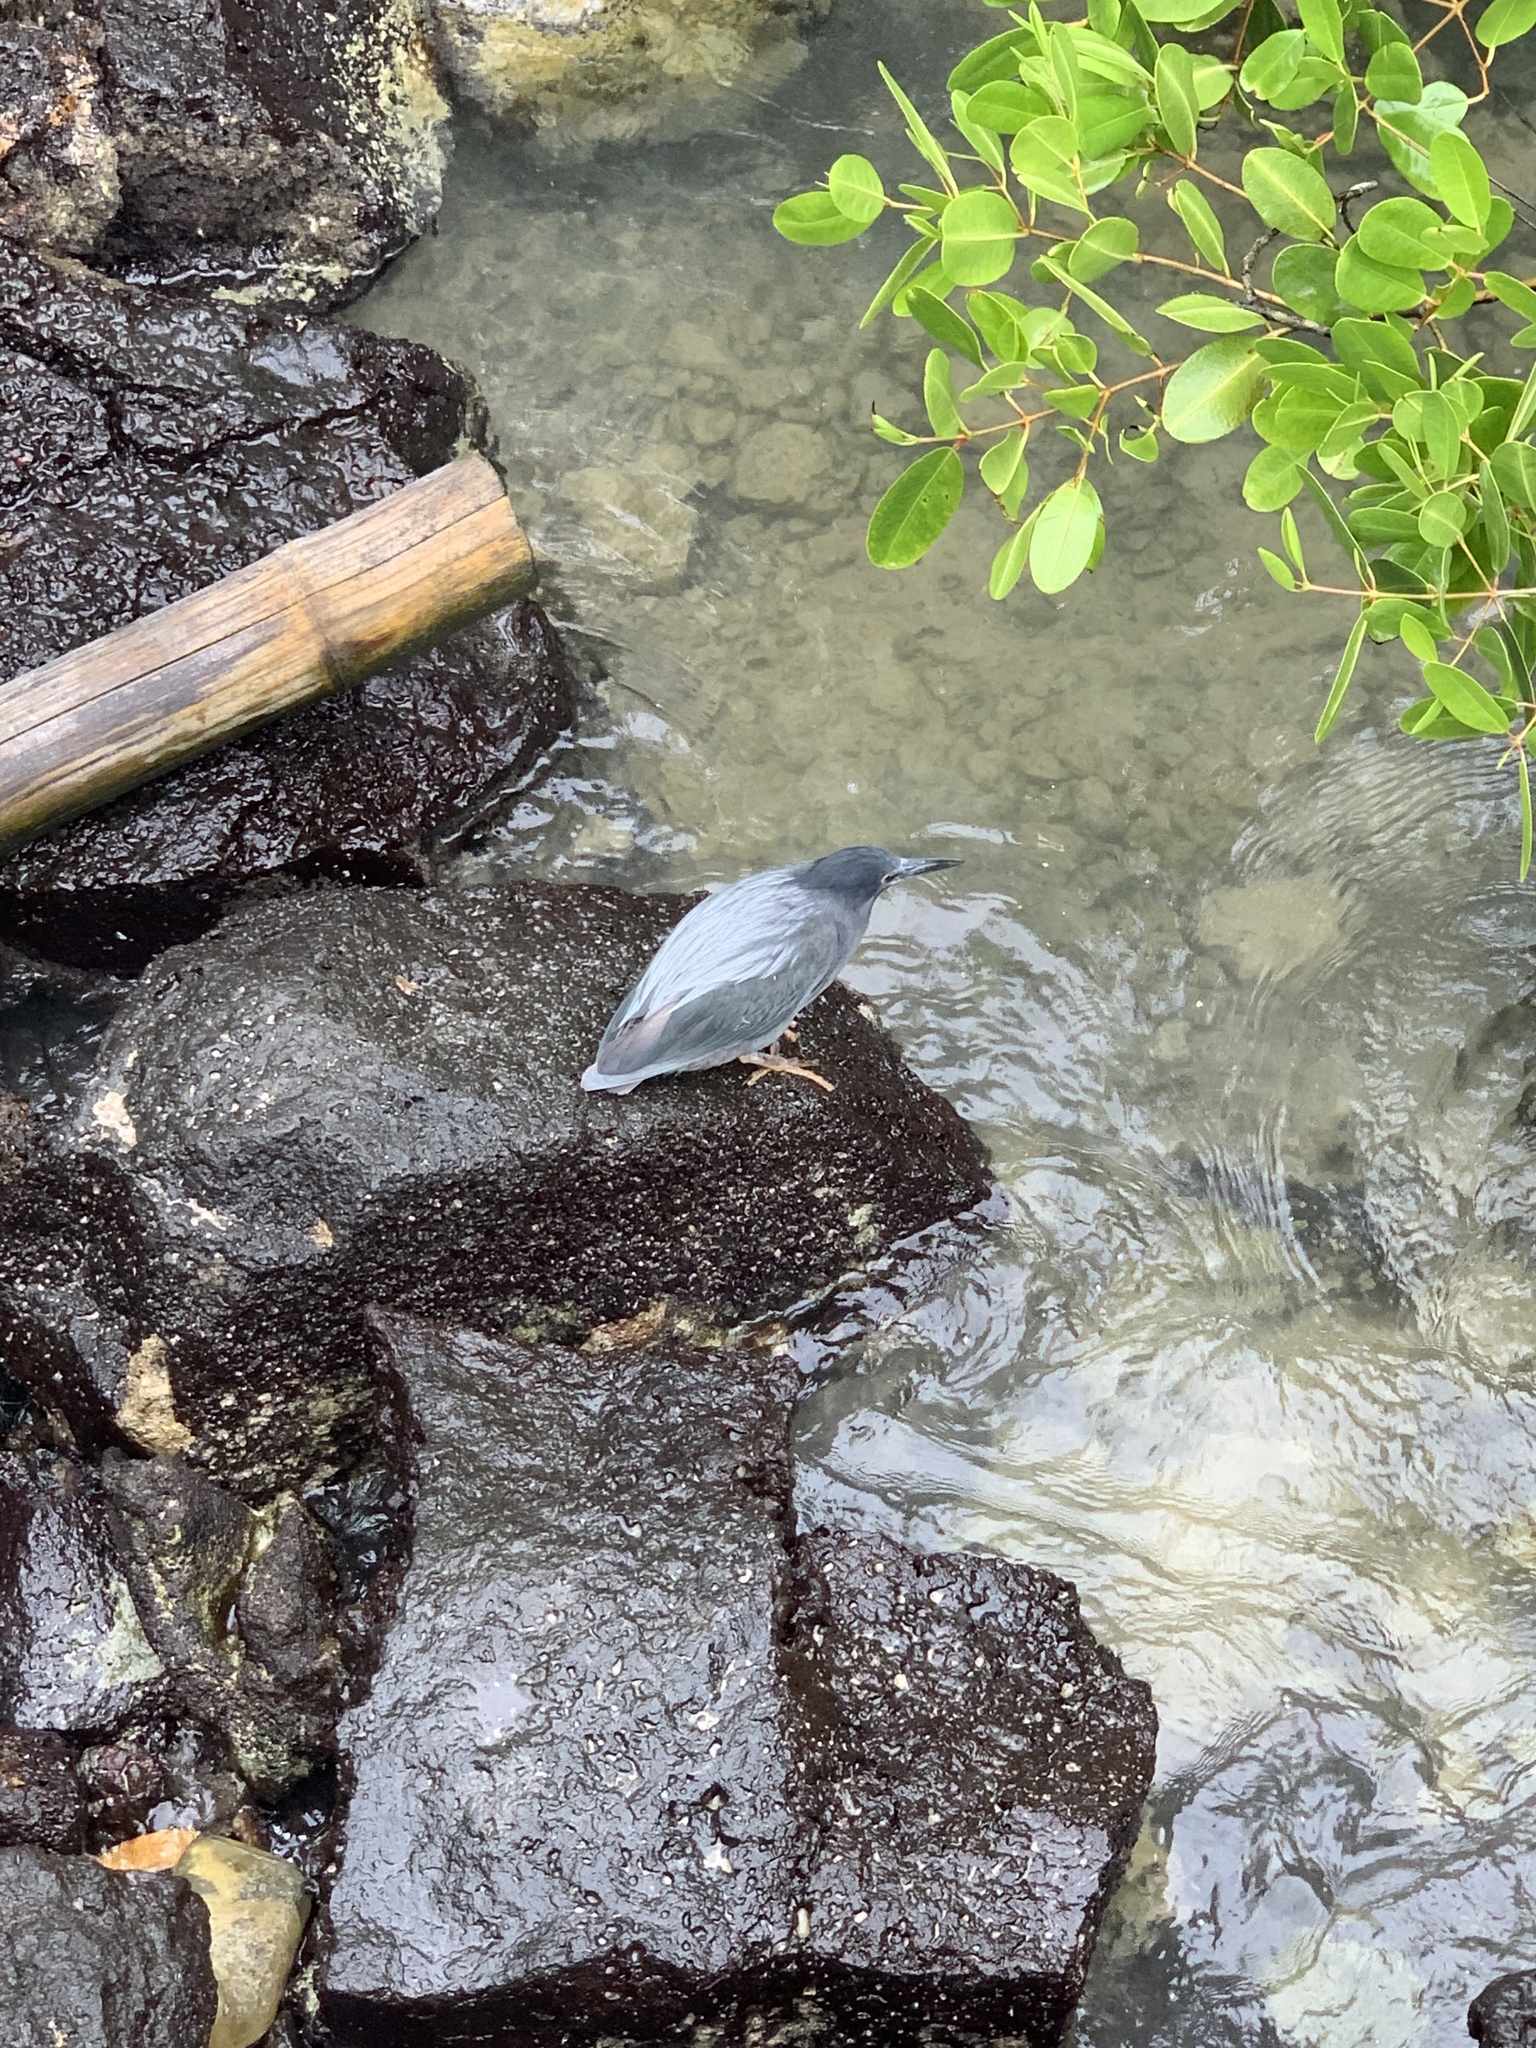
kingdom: Animalia
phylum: Chordata
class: Aves
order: Pelecaniformes
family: Ardeidae
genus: Butorides
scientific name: Butorides striata
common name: Striated heron
